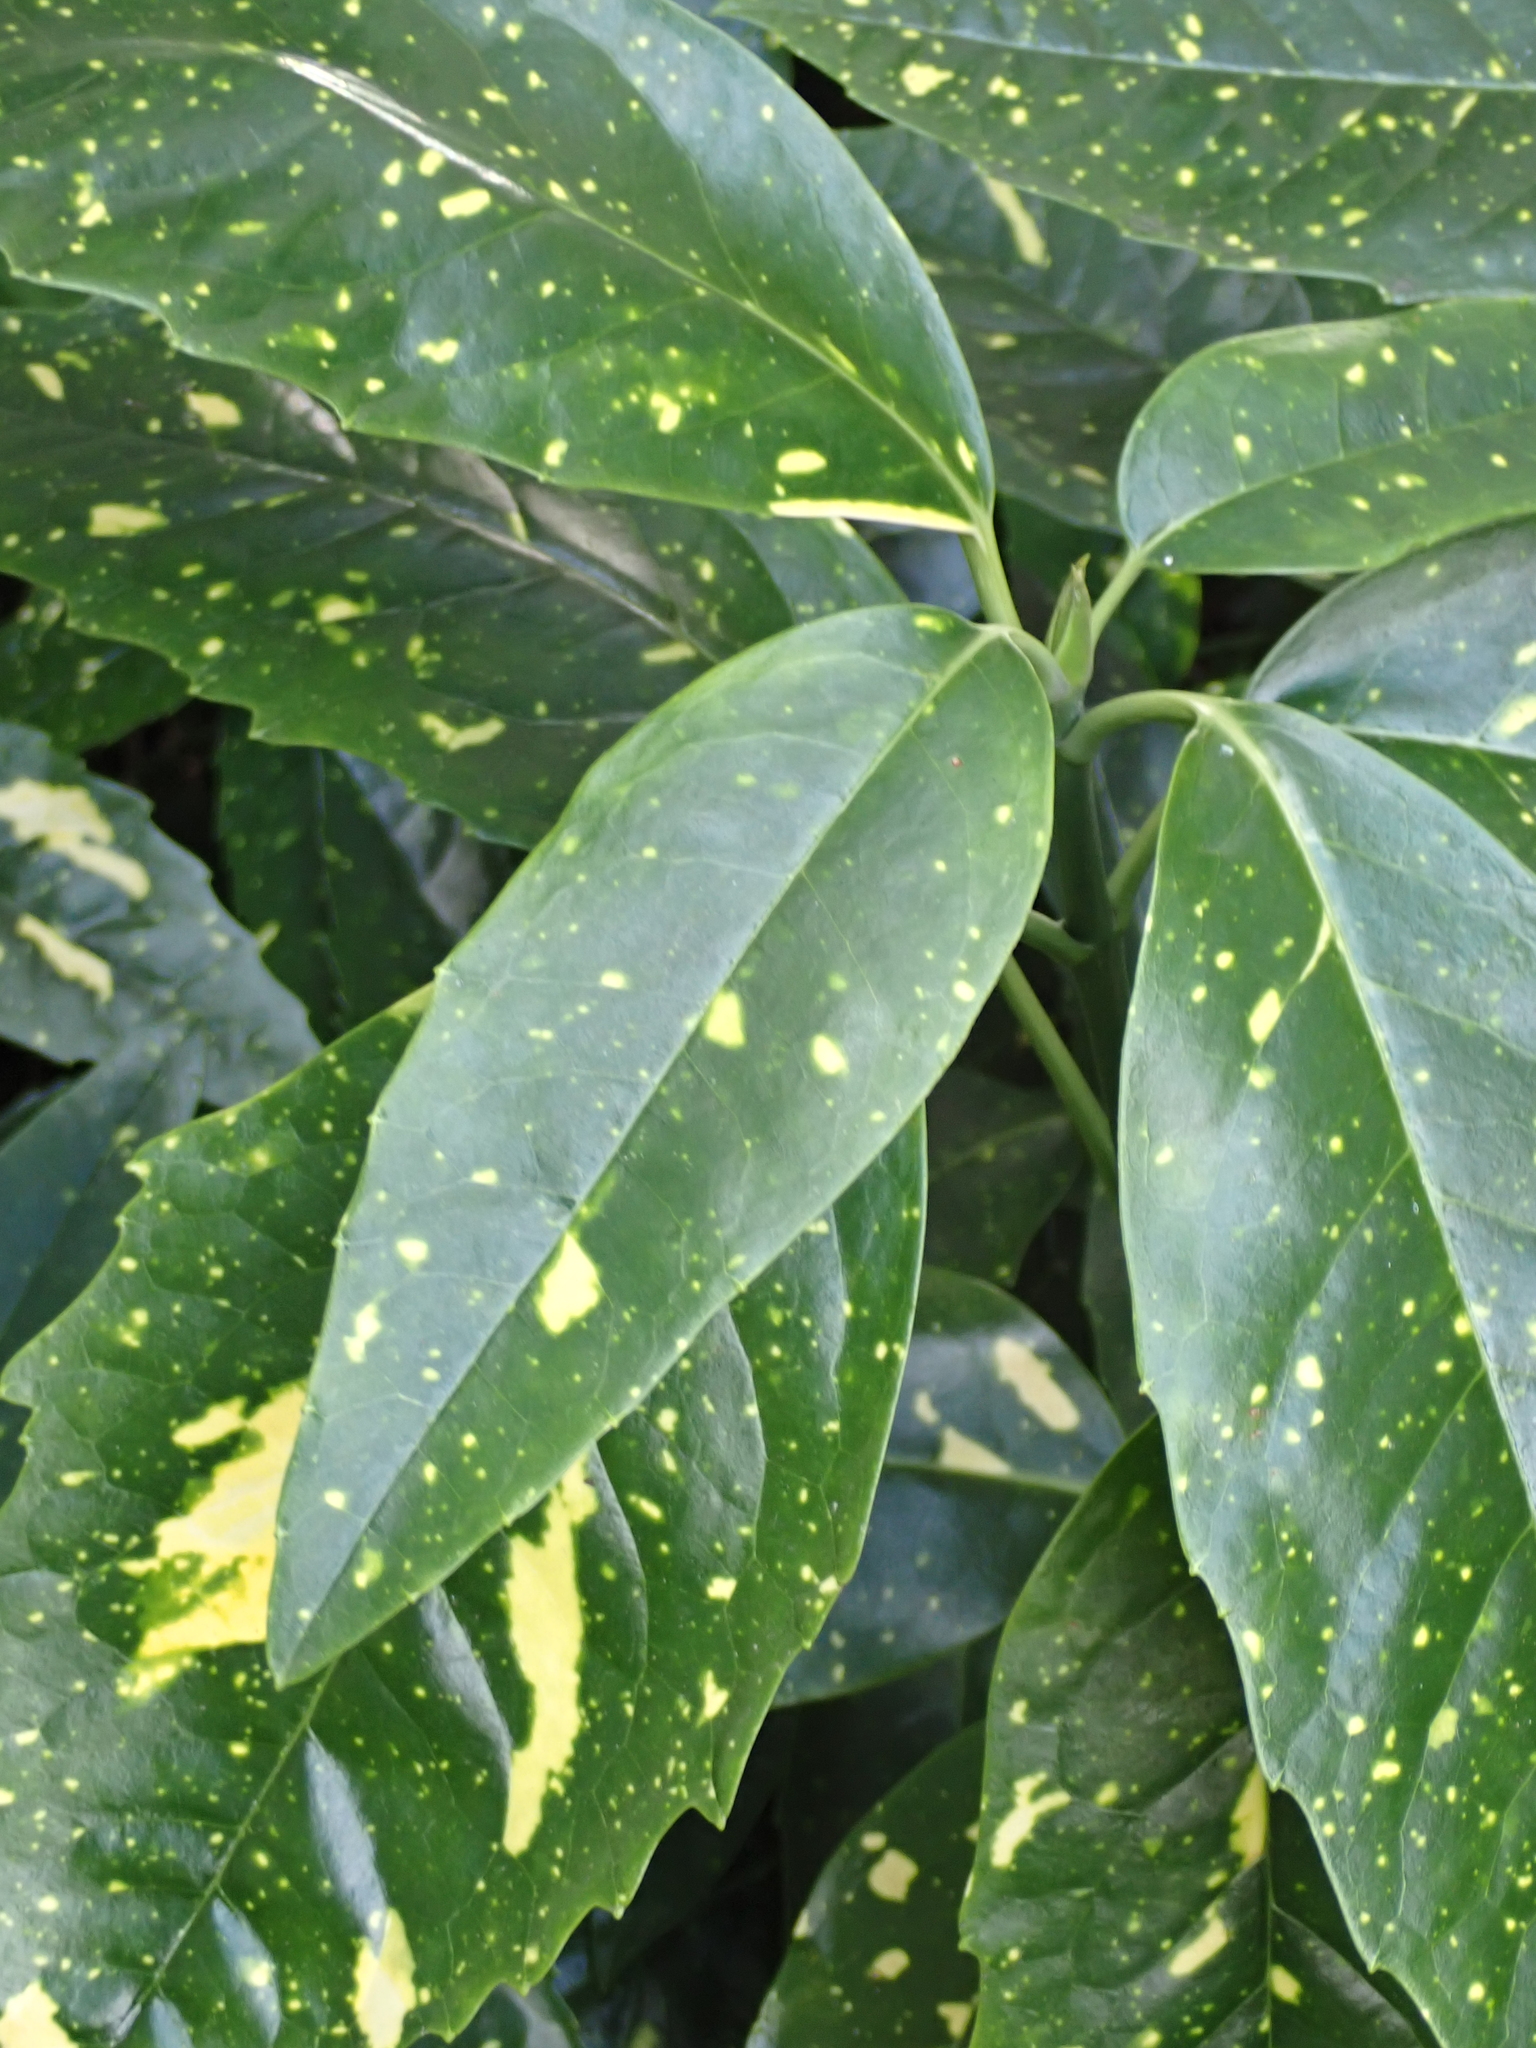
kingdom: Plantae
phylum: Tracheophyta
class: Magnoliopsida
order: Garryales
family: Garryaceae
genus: Aucuba
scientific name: Aucuba japonica
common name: Spotted-laurel
